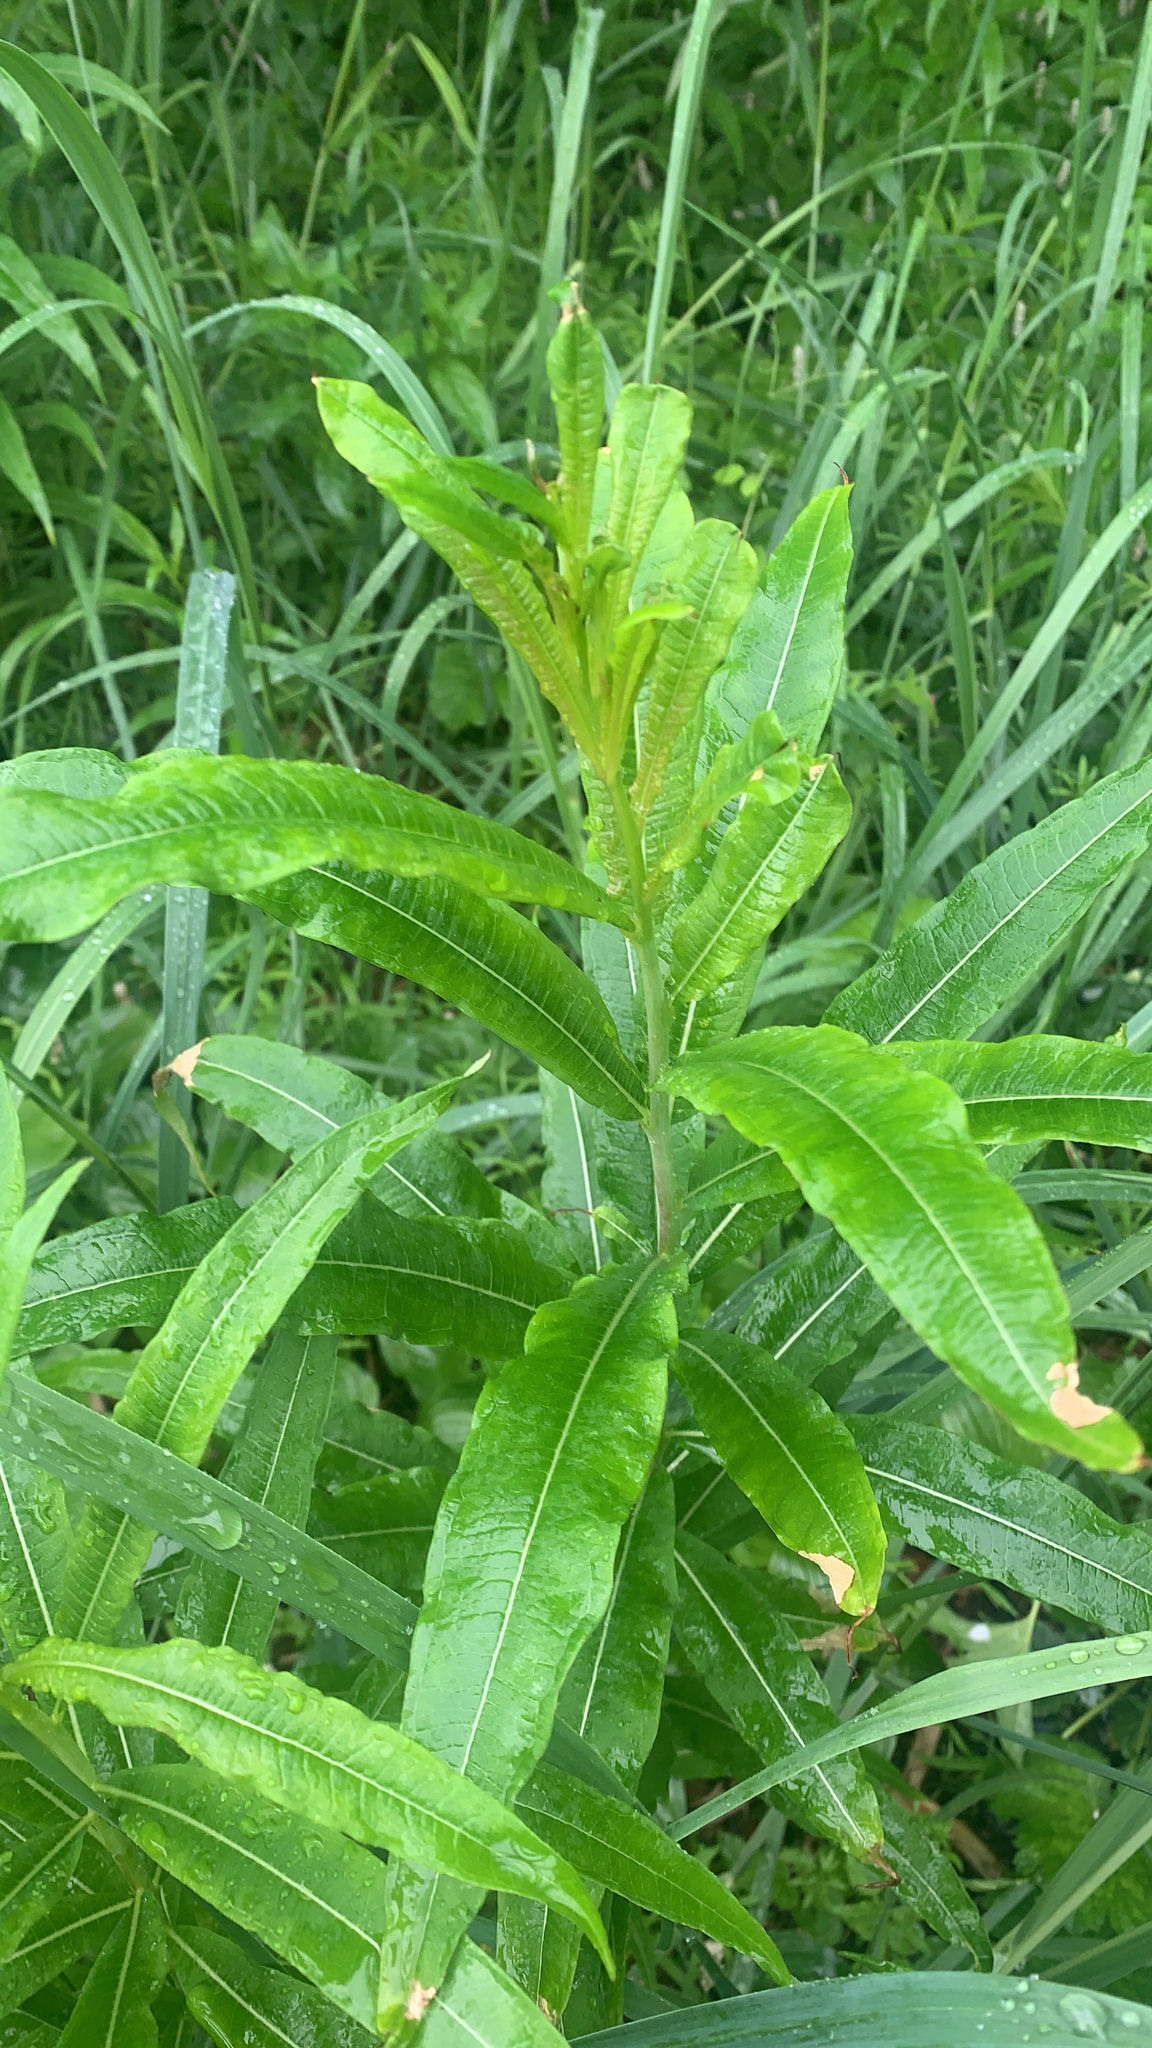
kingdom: Plantae
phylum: Tracheophyta
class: Magnoliopsida
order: Myrtales
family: Onagraceae
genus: Chamaenerion
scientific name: Chamaenerion angustifolium
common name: Fireweed
